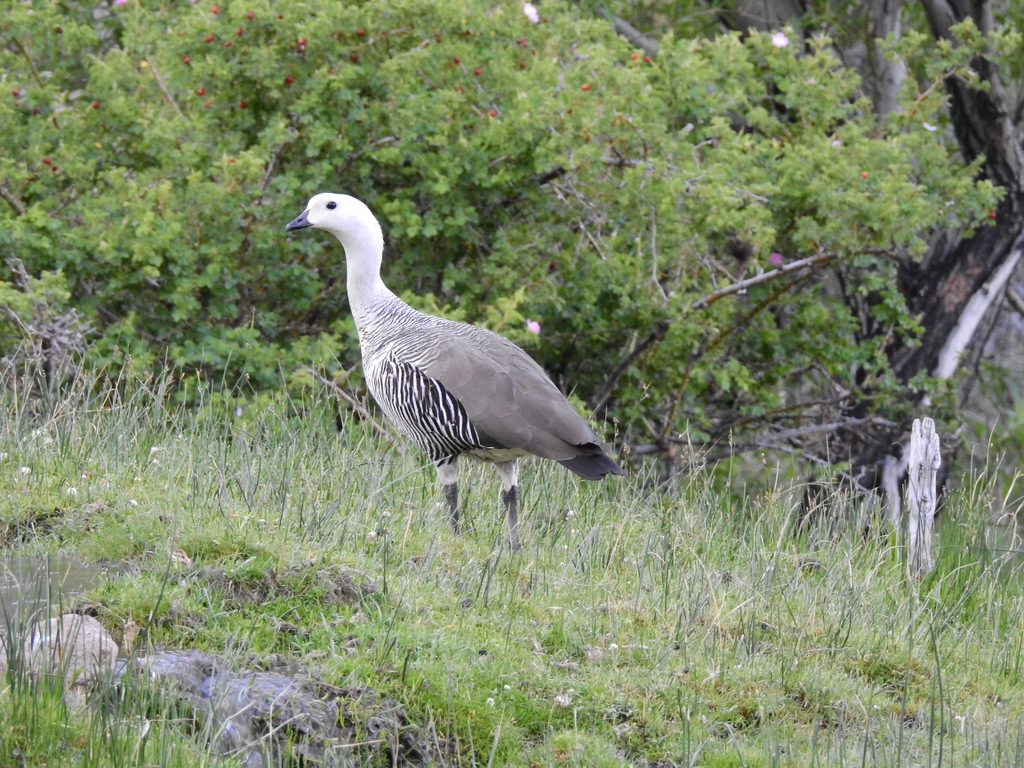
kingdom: Animalia
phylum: Chordata
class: Aves
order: Anseriformes
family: Anatidae
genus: Chloephaga
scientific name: Chloephaga picta
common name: Upland goose
